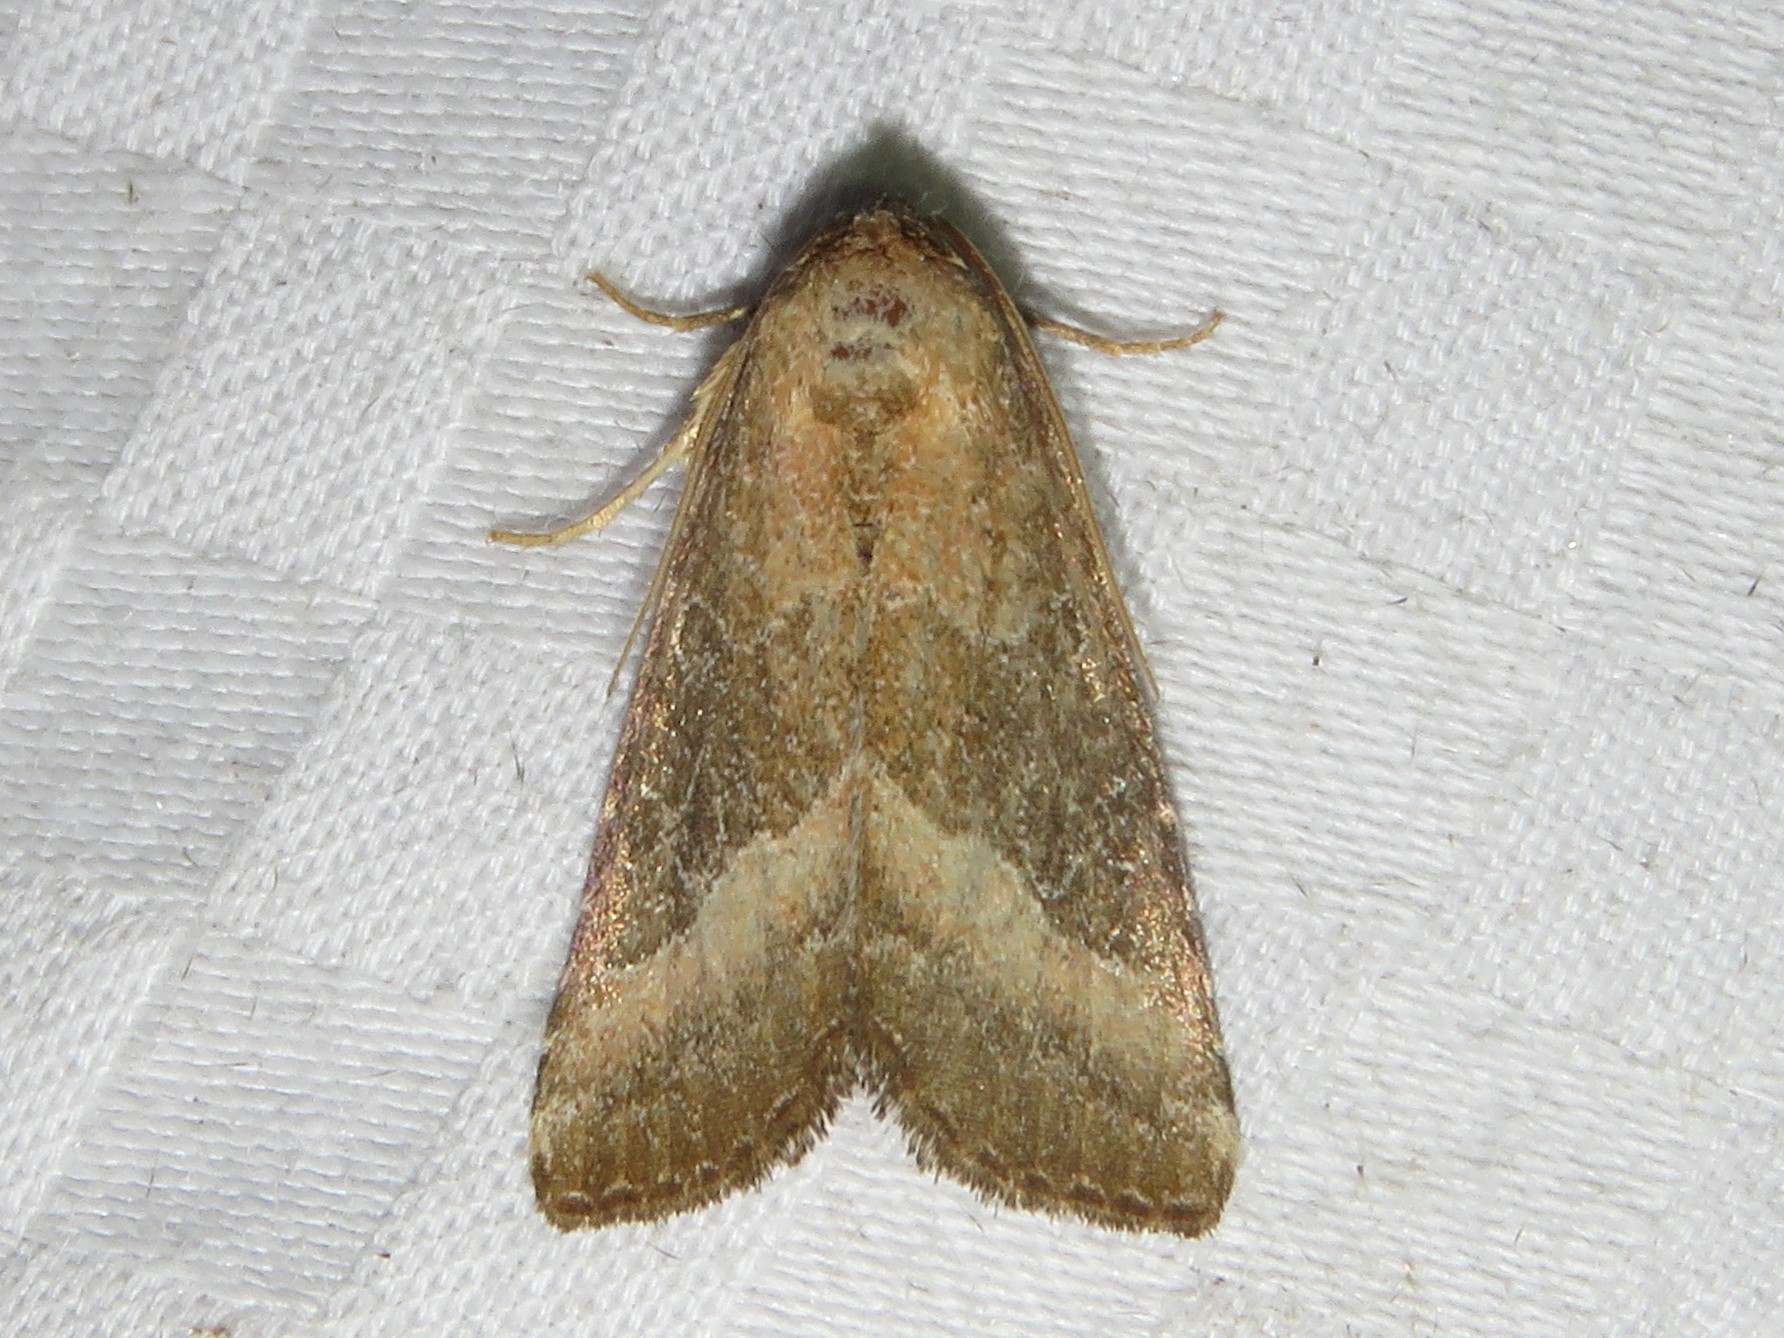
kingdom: Animalia
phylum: Arthropoda
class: Insecta
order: Lepidoptera
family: Noctuidae
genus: Ogdoconta
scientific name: Ogdoconta cinereola
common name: Common pinkband
